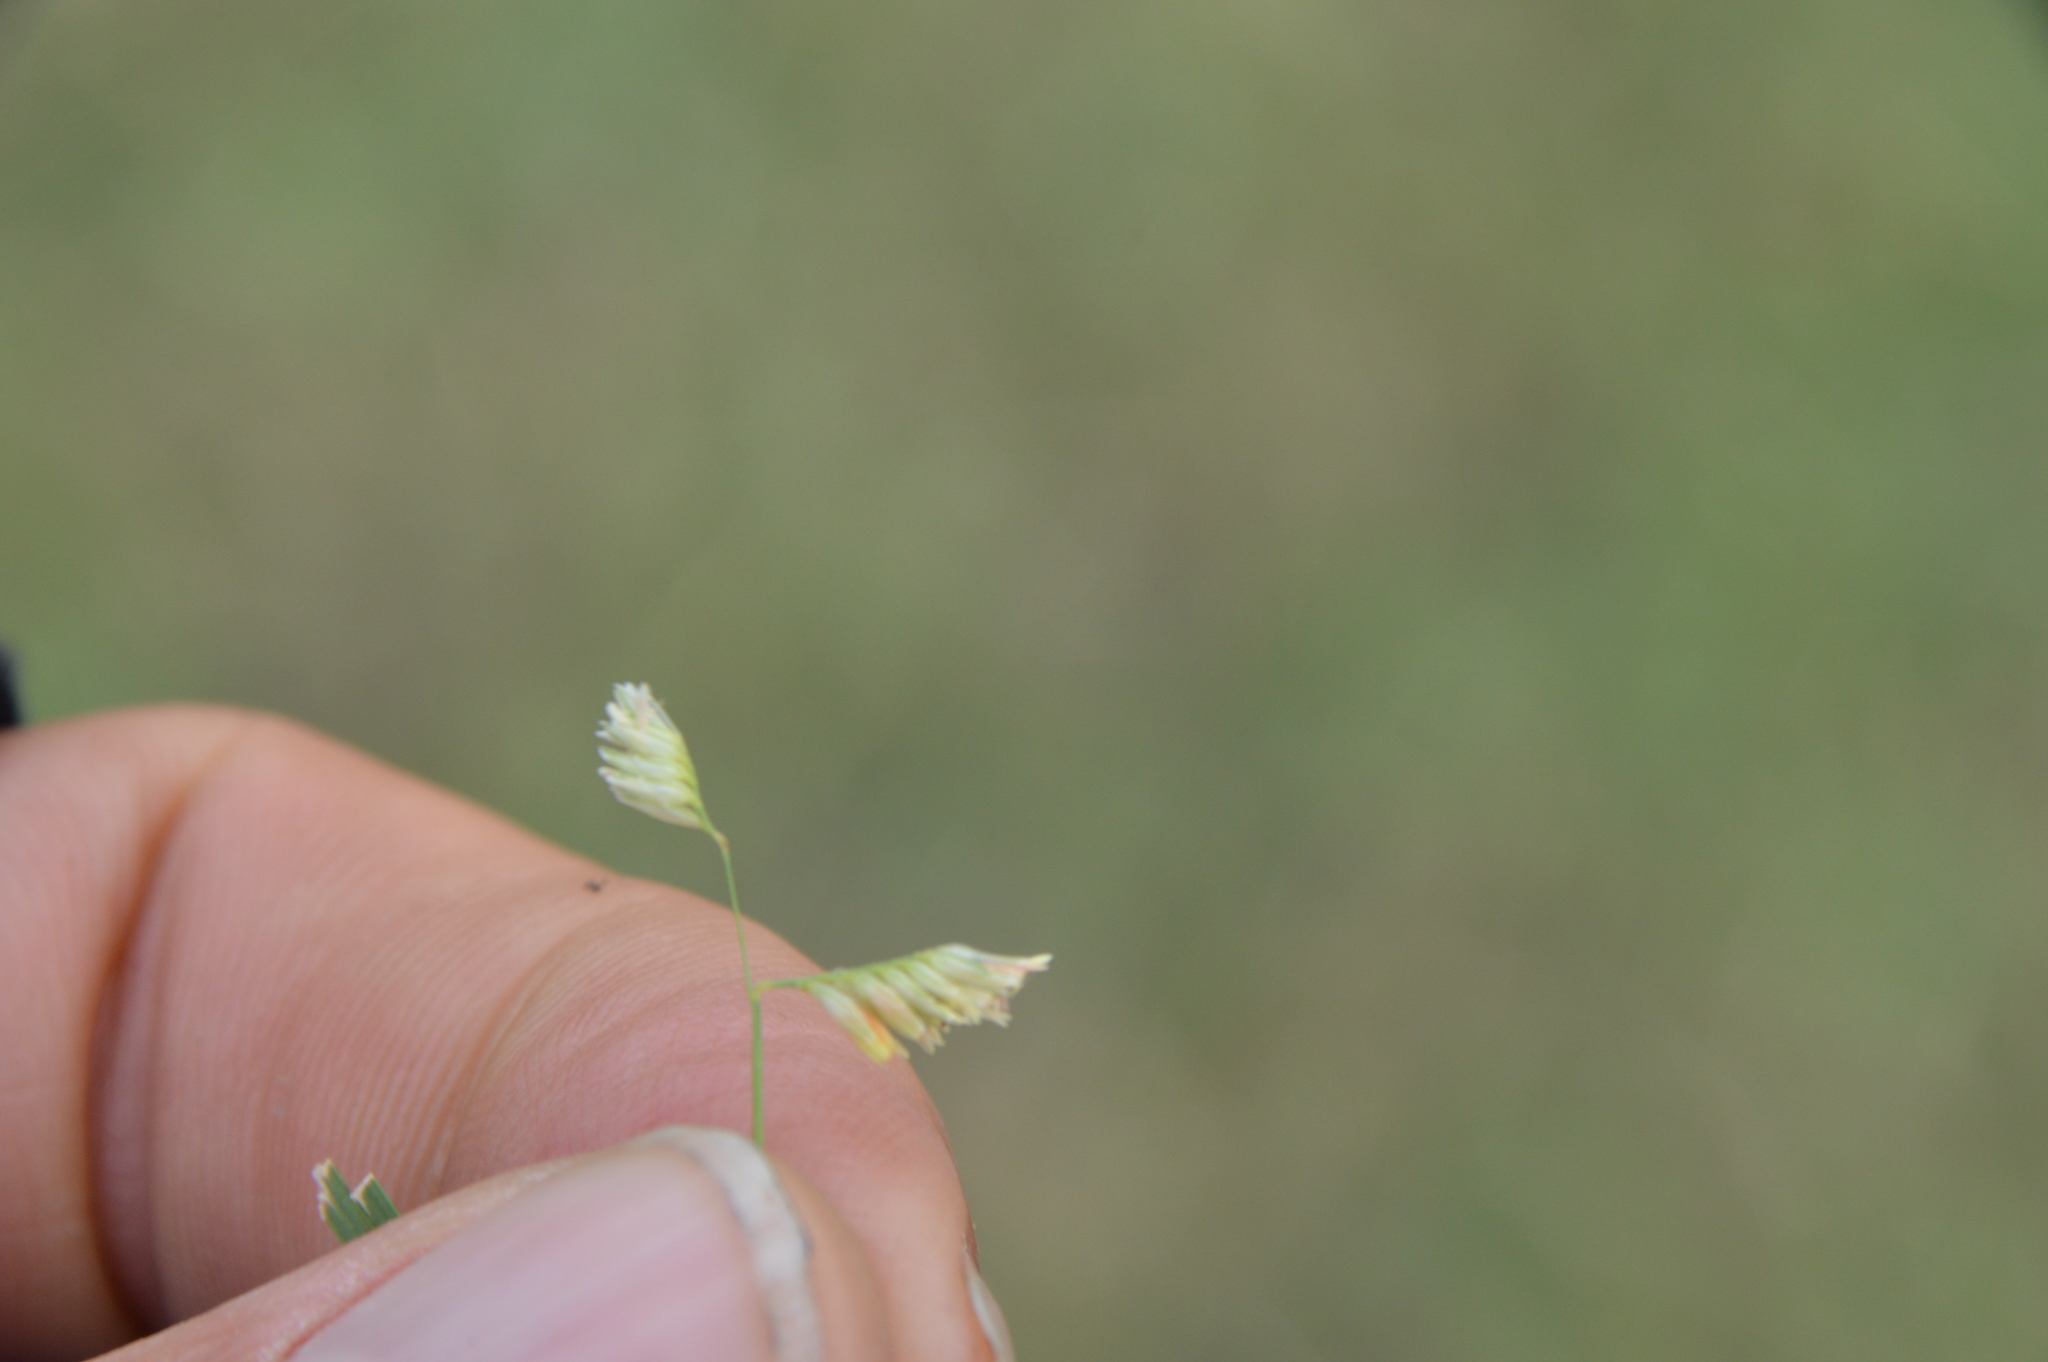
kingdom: Plantae
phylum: Tracheophyta
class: Liliopsida
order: Poales
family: Poaceae
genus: Bouteloua
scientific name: Bouteloua dactyloides
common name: Buffalo grass
